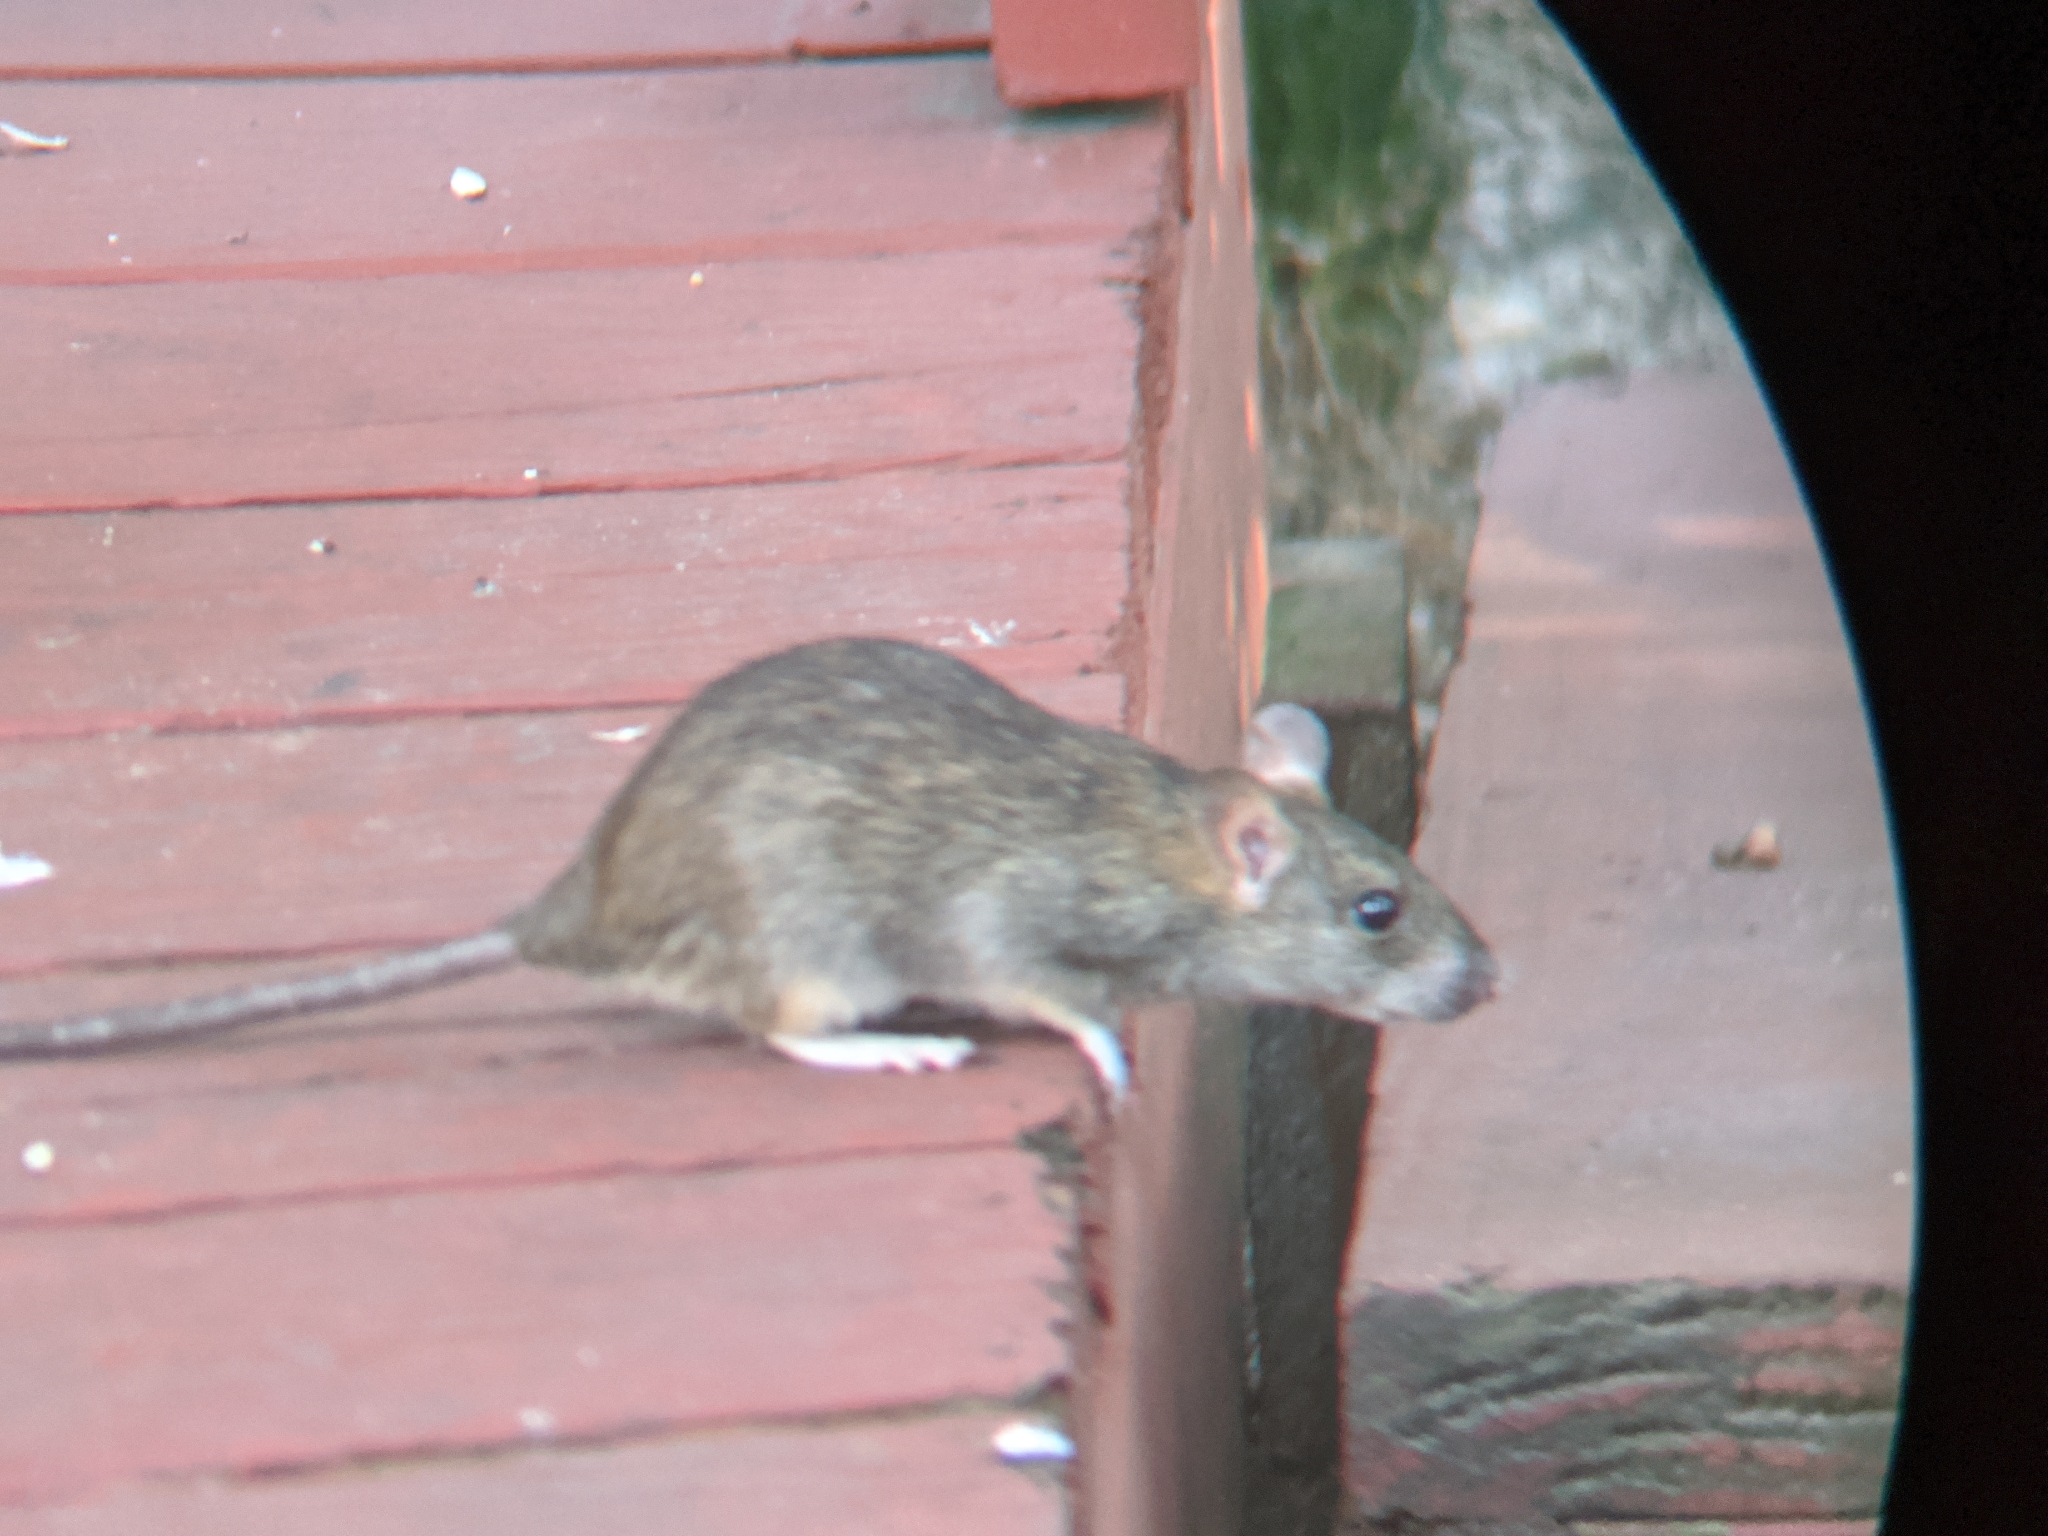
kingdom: Animalia
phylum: Chordata
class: Mammalia
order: Rodentia
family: Muridae
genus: Rattus
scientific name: Rattus rattus
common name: Black rat
